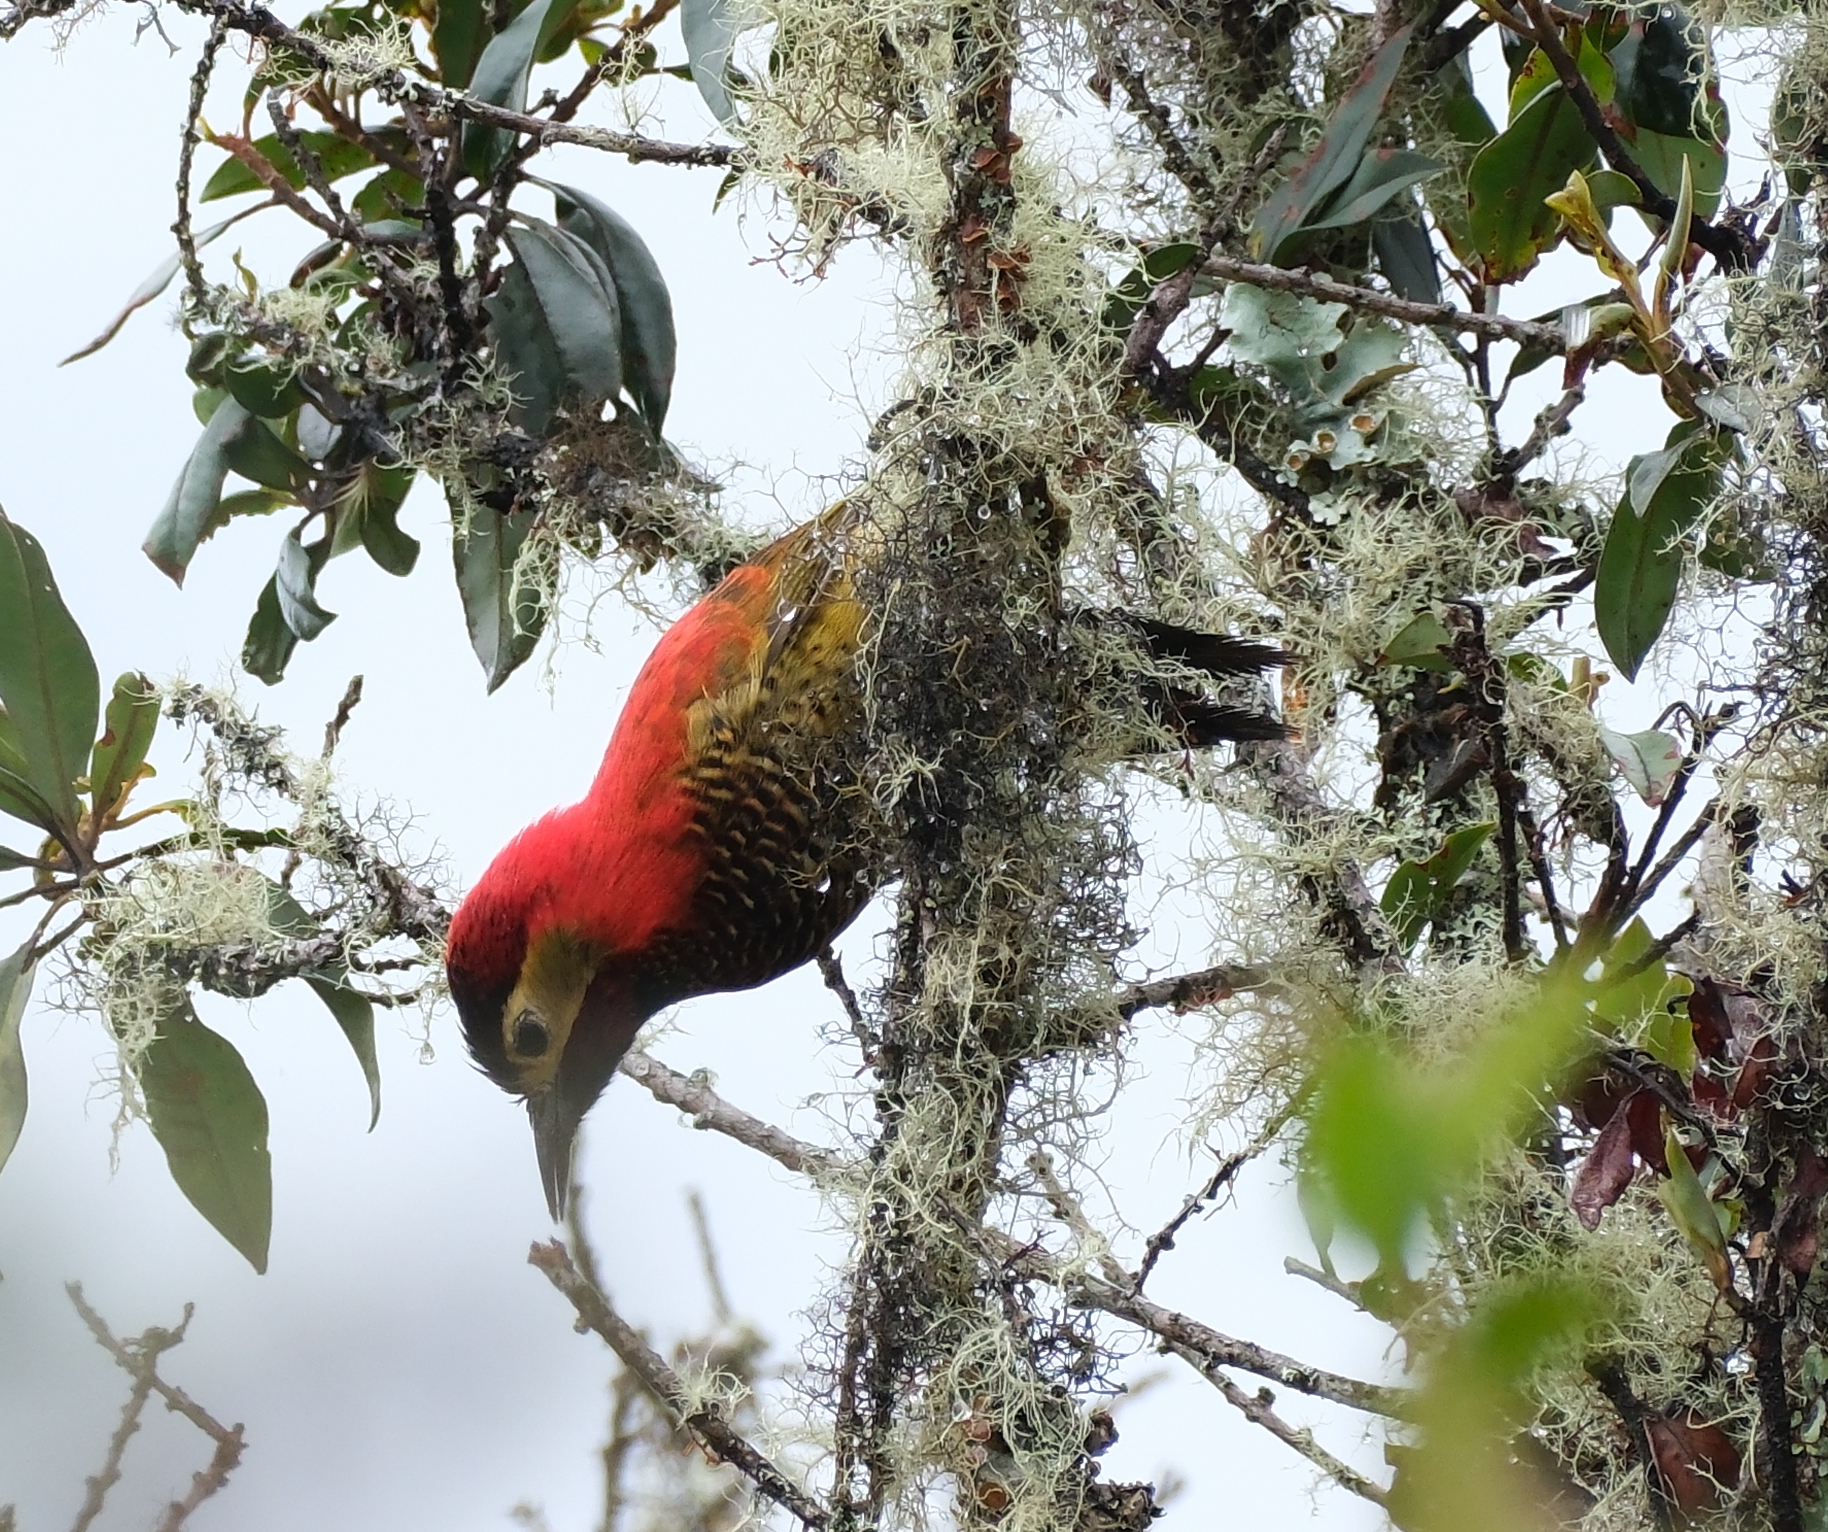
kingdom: Animalia
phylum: Chordata
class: Aves
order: Piciformes
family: Picidae
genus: Colaptes
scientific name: Colaptes rivolii
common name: Crimson-mantled woodpecker
